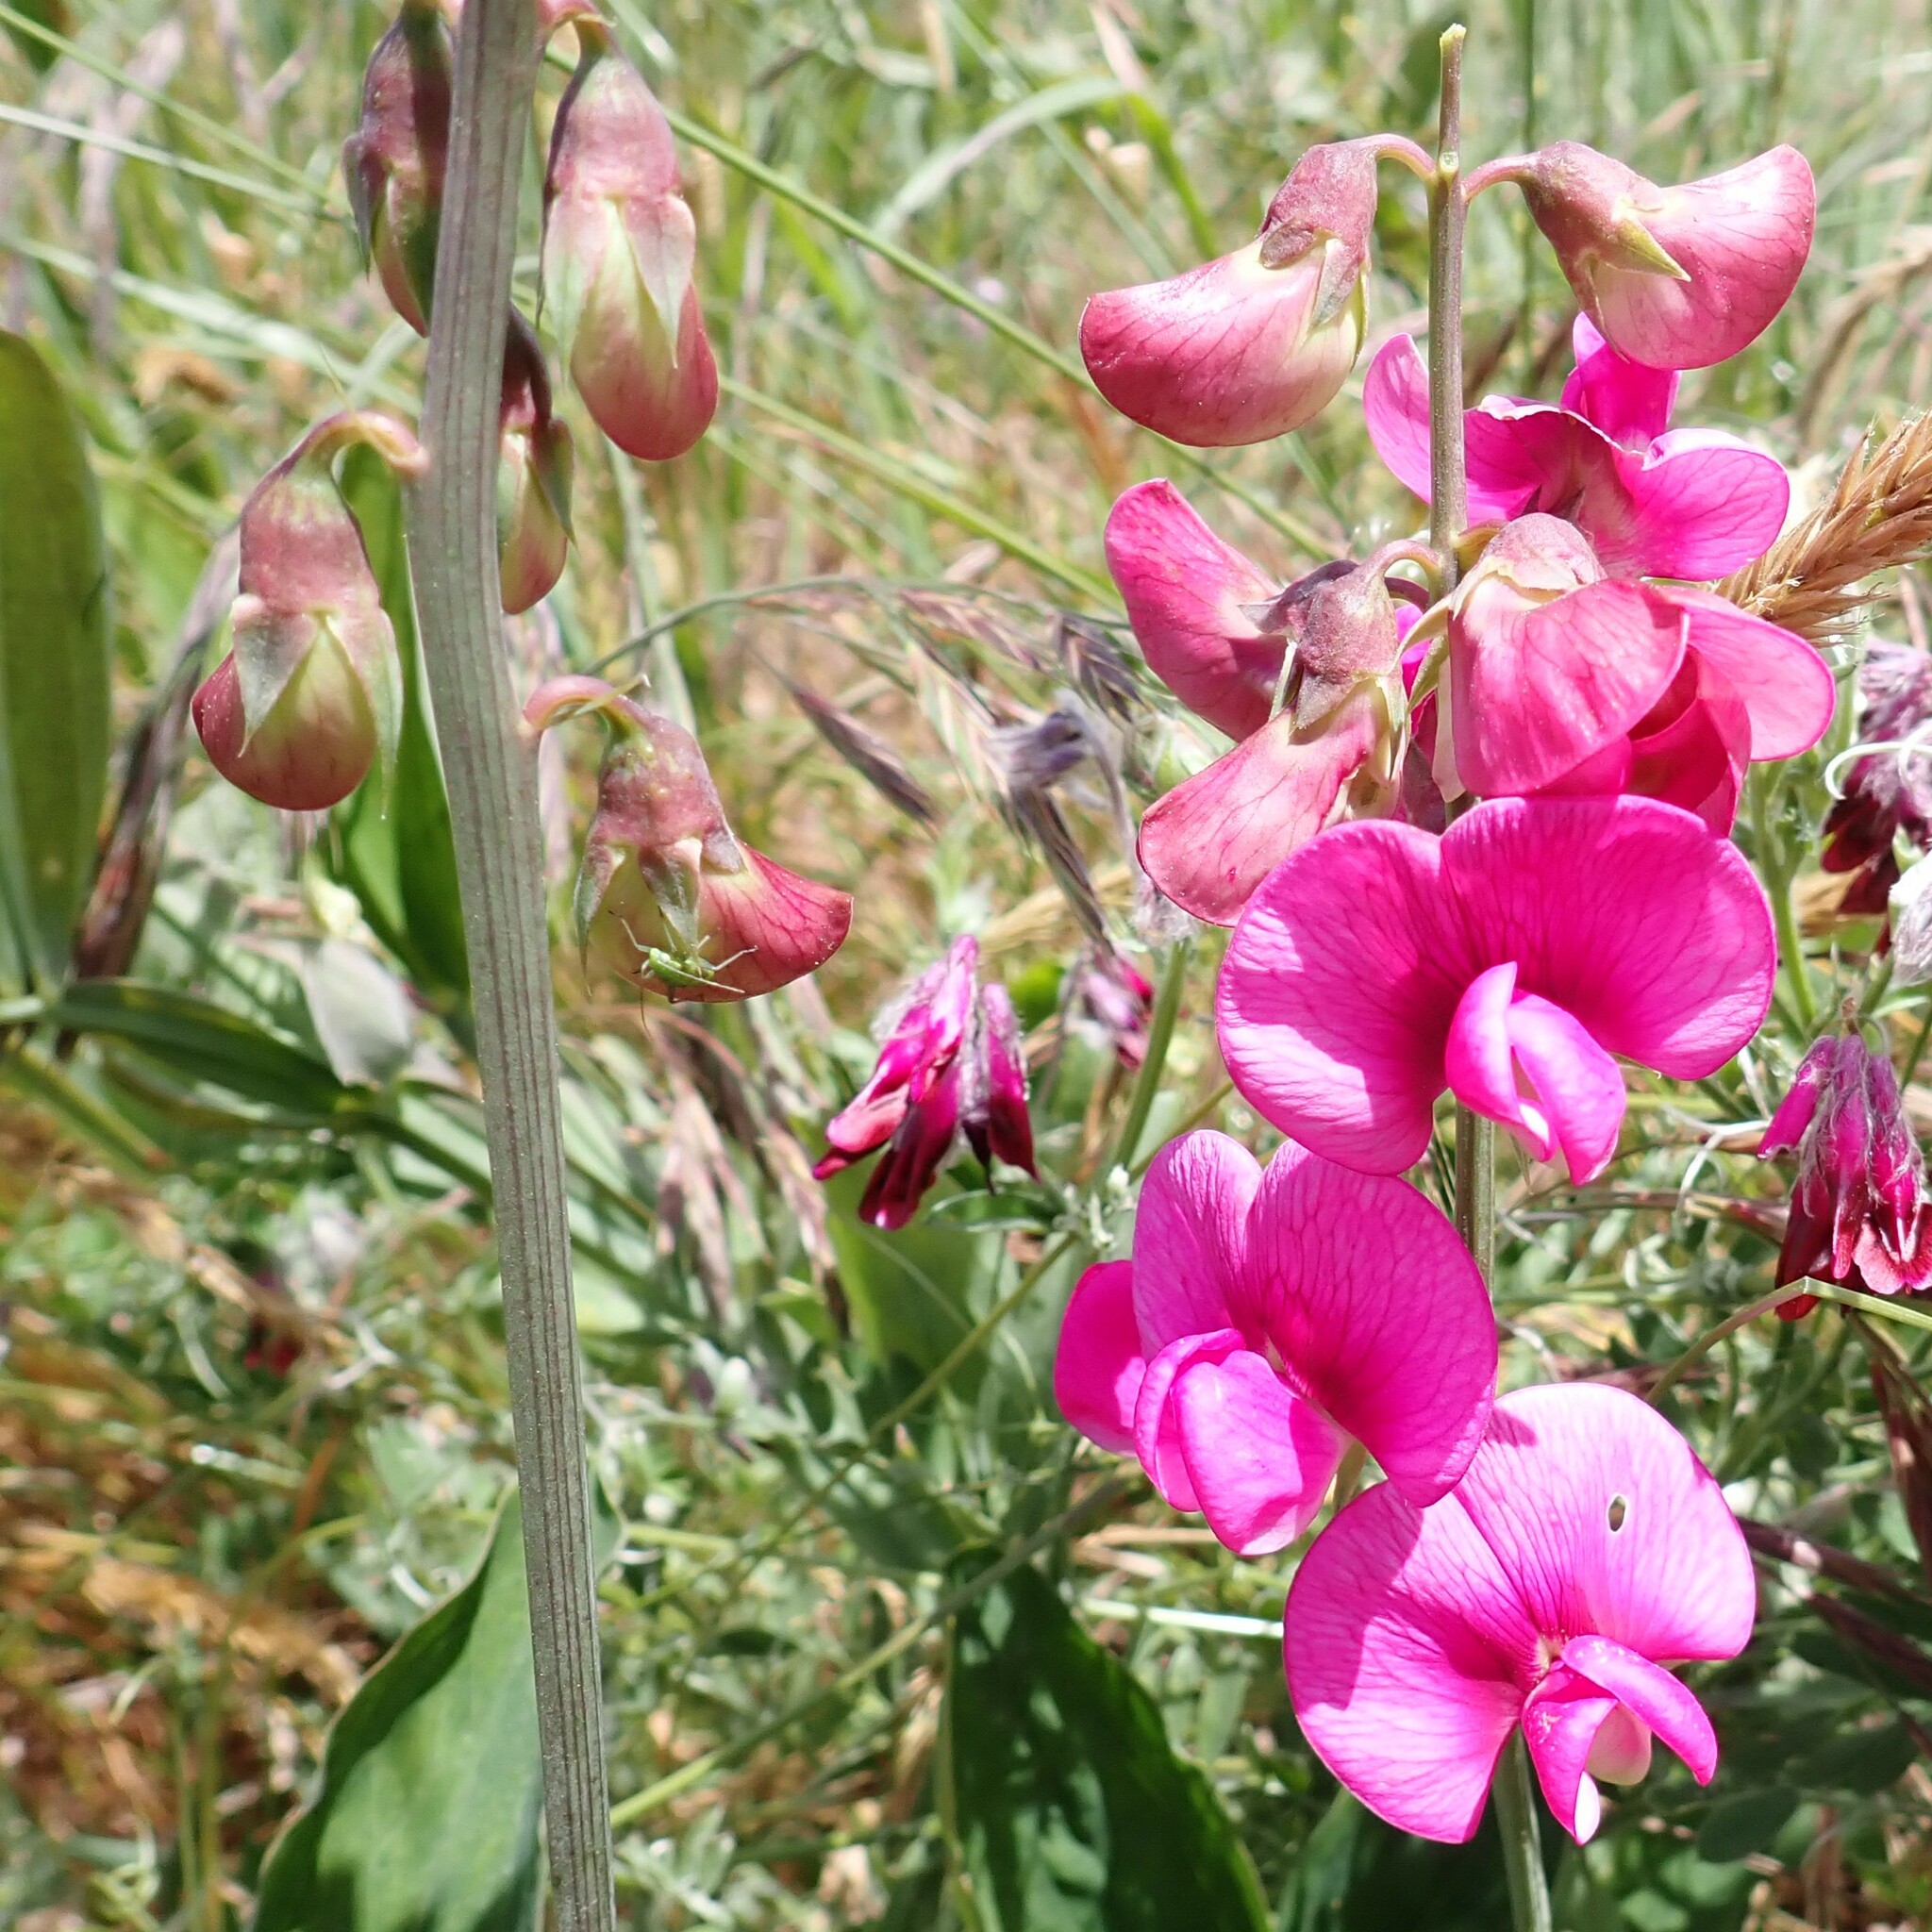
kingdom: Plantae
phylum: Tracheophyta
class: Magnoliopsida
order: Fabales
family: Fabaceae
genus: Lathyrus
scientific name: Lathyrus latifolius
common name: Perennial pea
